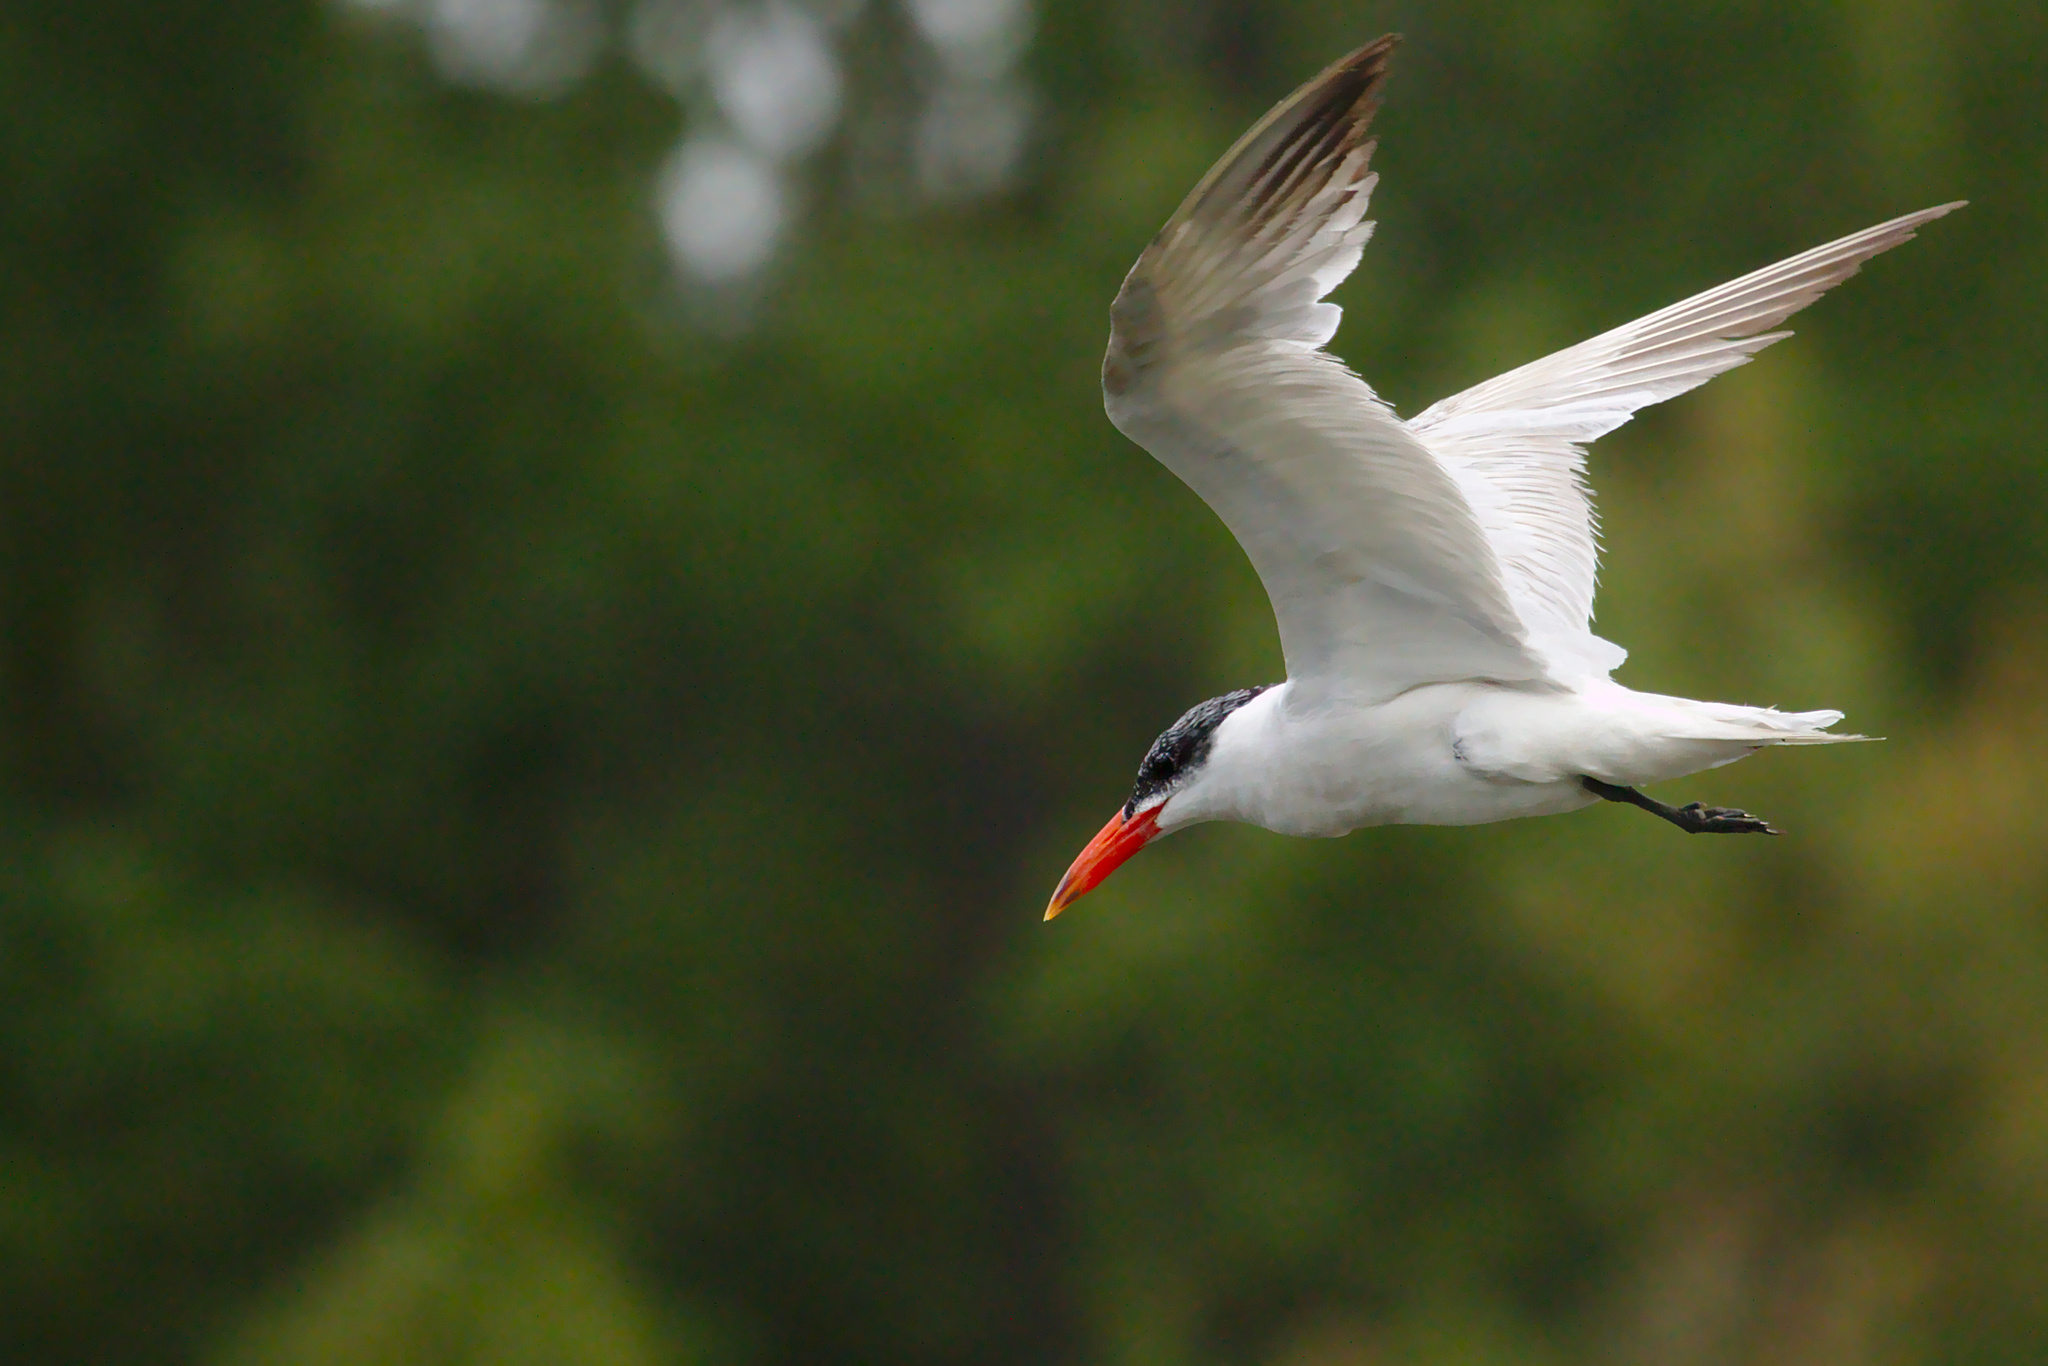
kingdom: Animalia
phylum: Chordata
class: Aves
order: Charadriiformes
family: Laridae
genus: Hydroprogne
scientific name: Hydroprogne caspia
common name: Caspian tern
